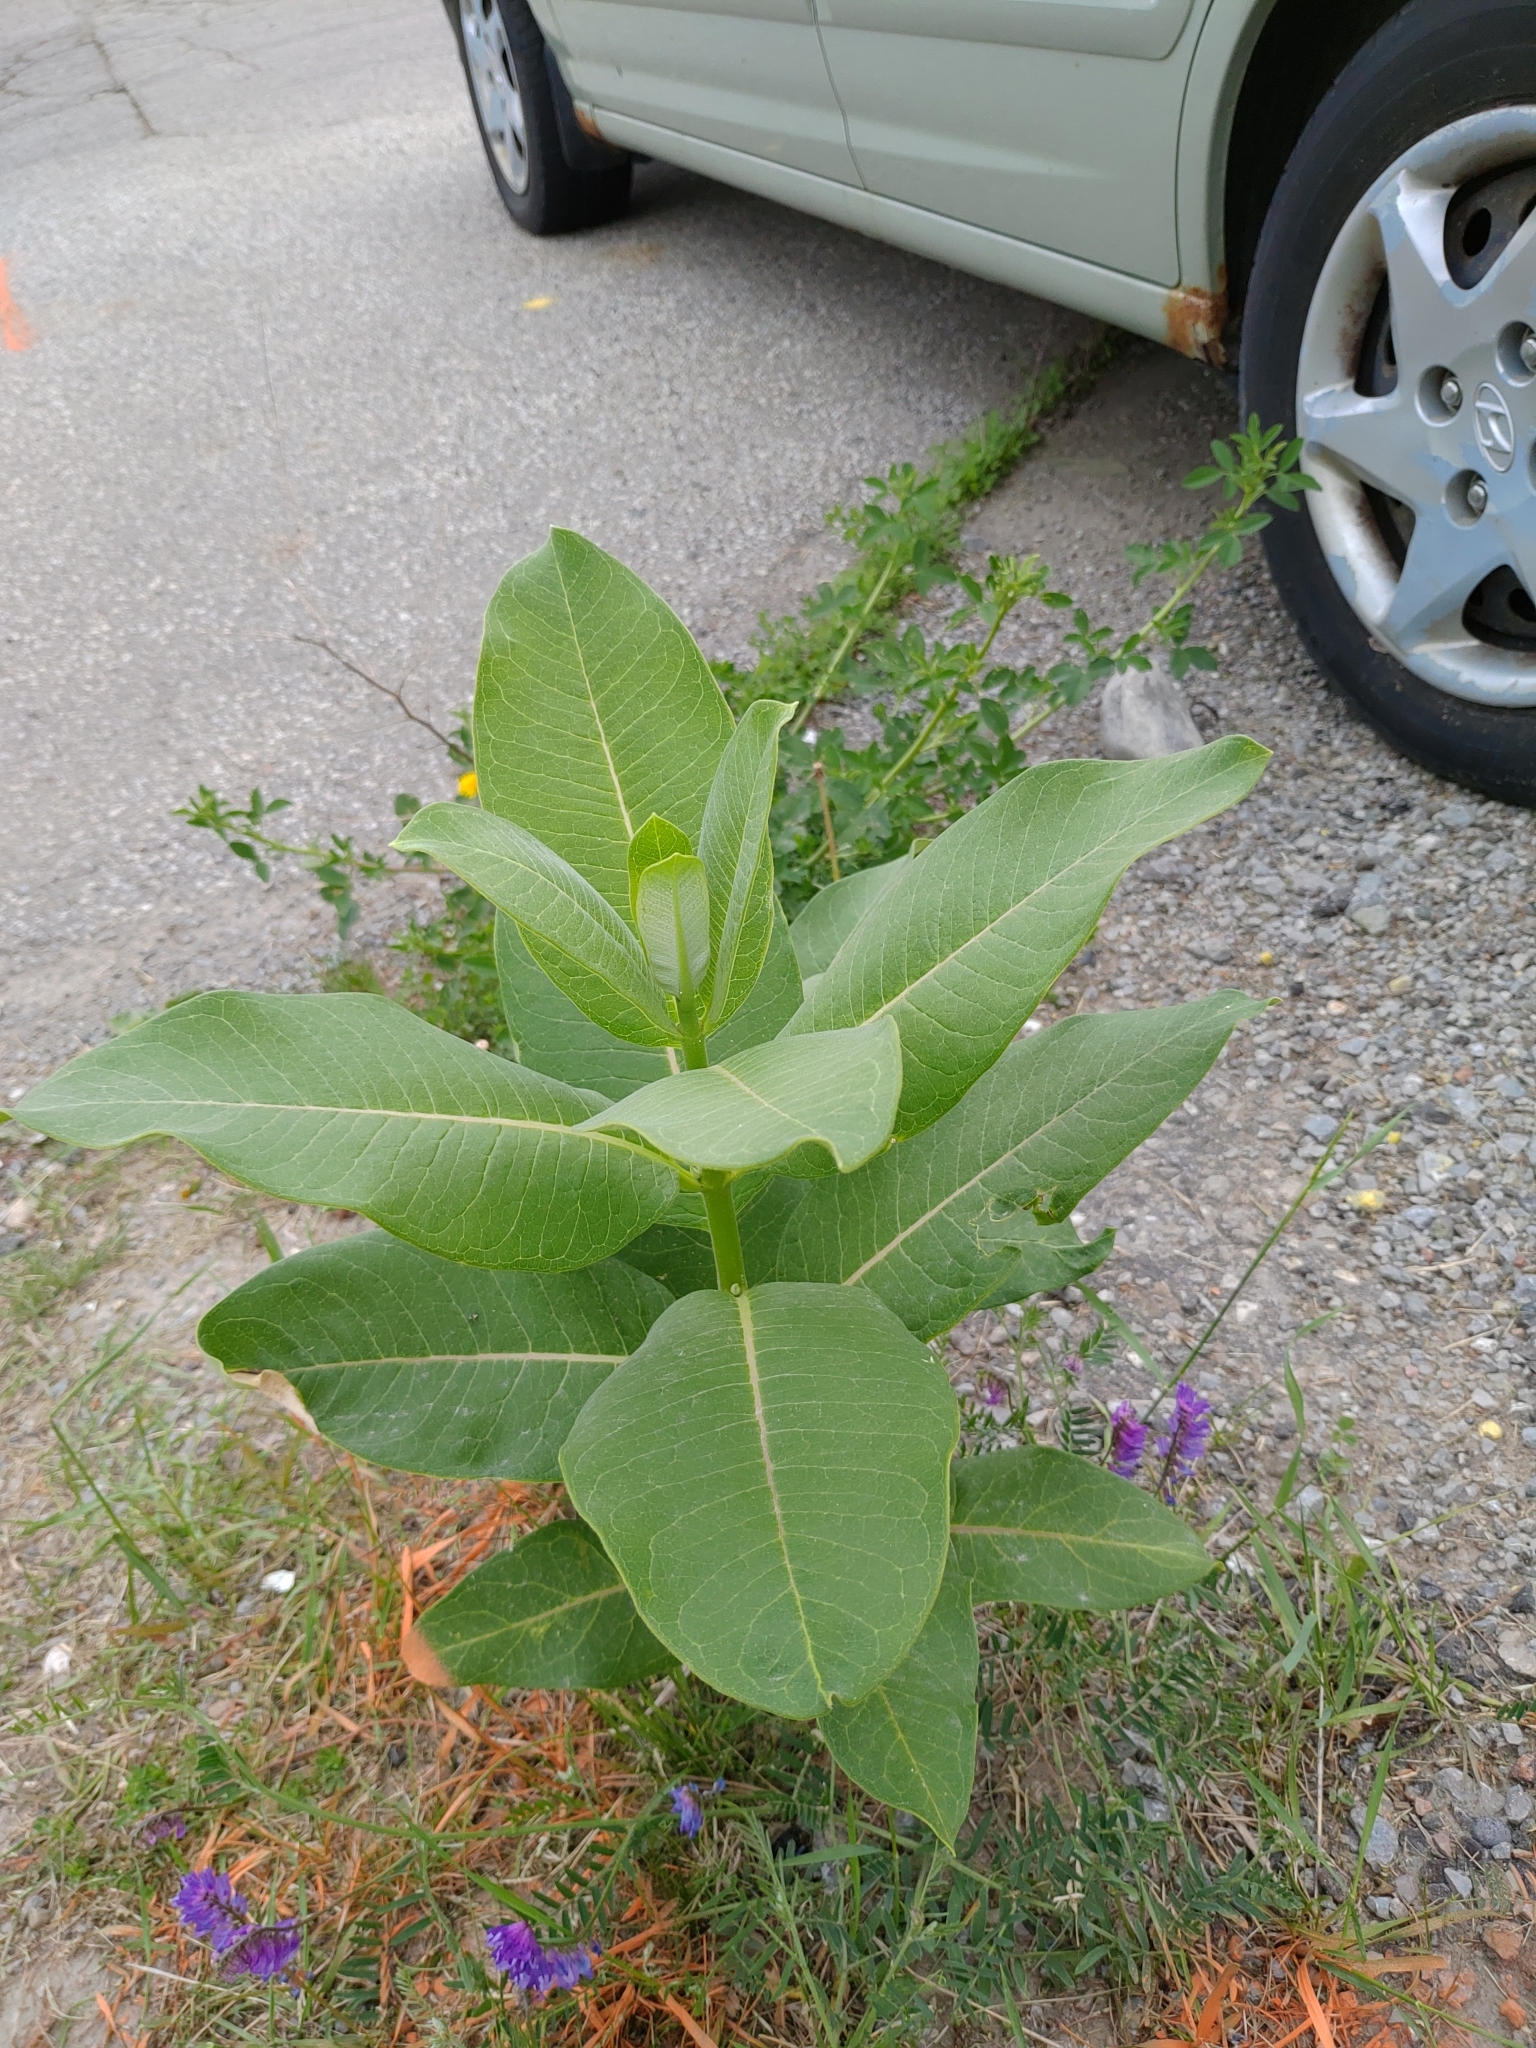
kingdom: Plantae
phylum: Tracheophyta
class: Magnoliopsida
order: Gentianales
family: Apocynaceae
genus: Asclepias
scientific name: Asclepias syriaca
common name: Common milkweed
